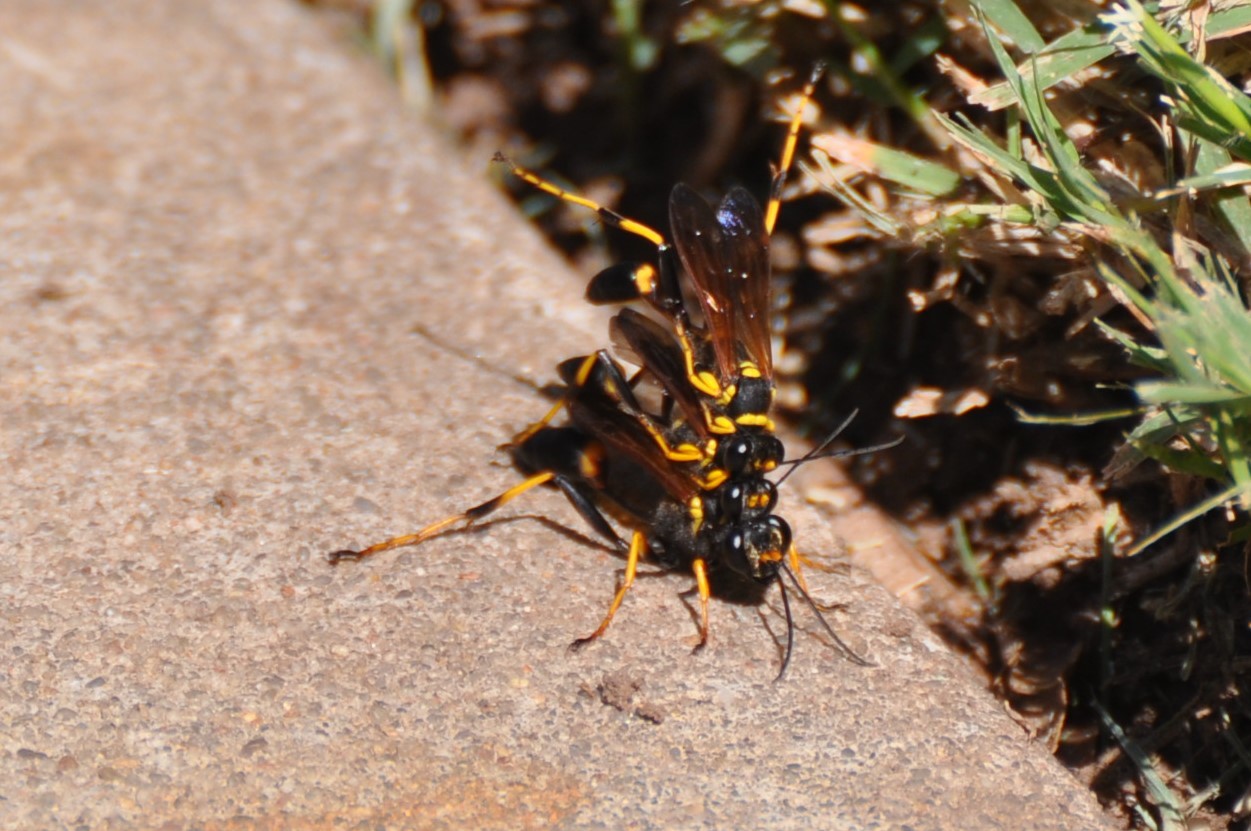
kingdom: Animalia
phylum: Arthropoda
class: Insecta
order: Hymenoptera
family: Sphecidae
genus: Sceliphron
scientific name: Sceliphron caementarium
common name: Mud dauber
